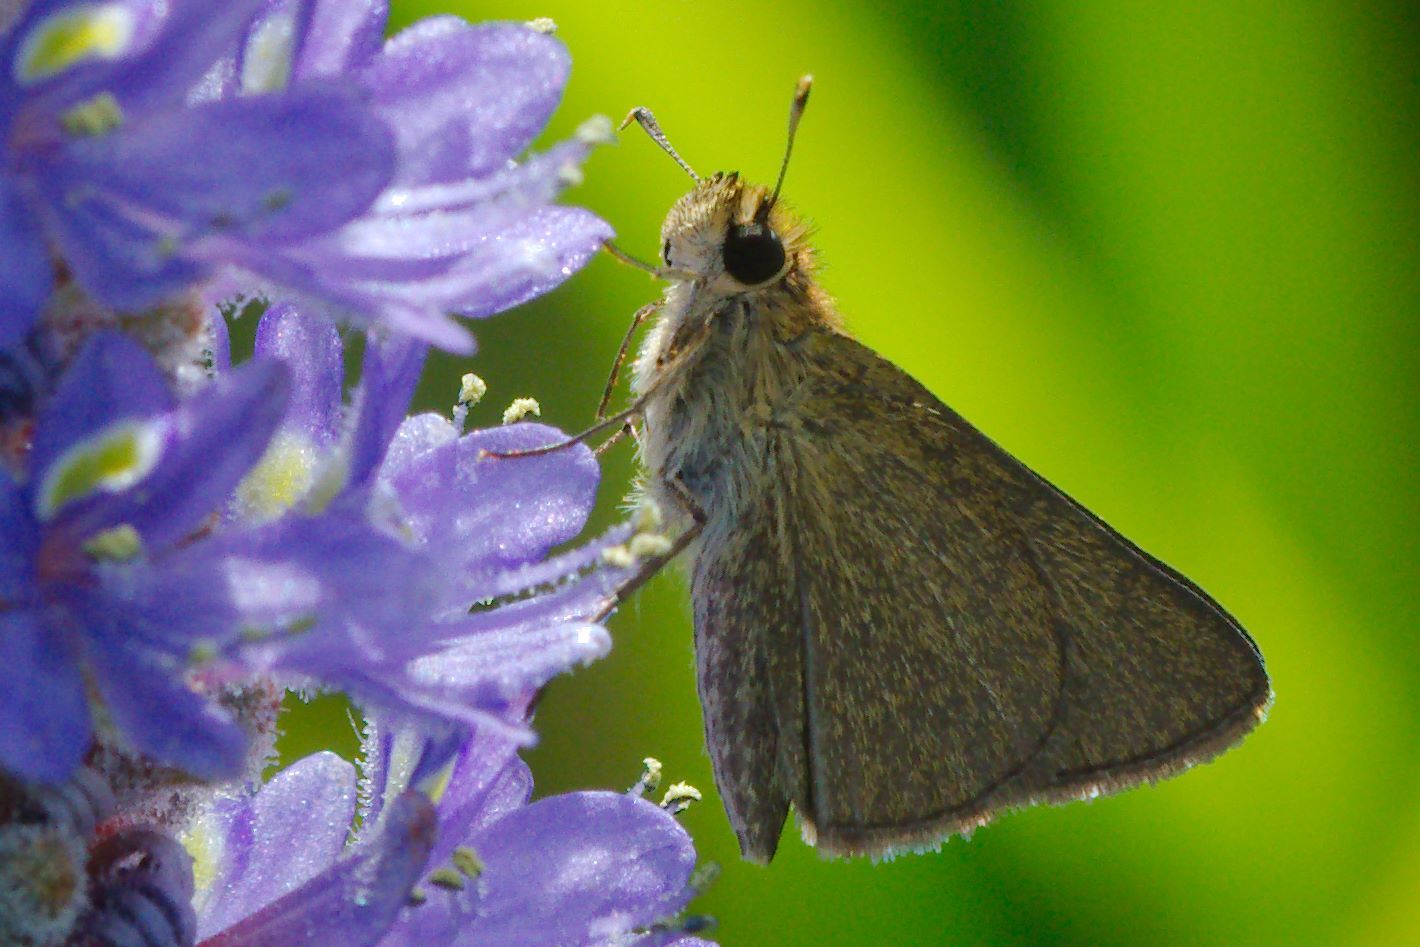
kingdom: Animalia
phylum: Arthropoda
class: Insecta
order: Lepidoptera
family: Hesperiidae
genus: Nastra
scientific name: Nastra lherminier
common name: Swarthy skipper
